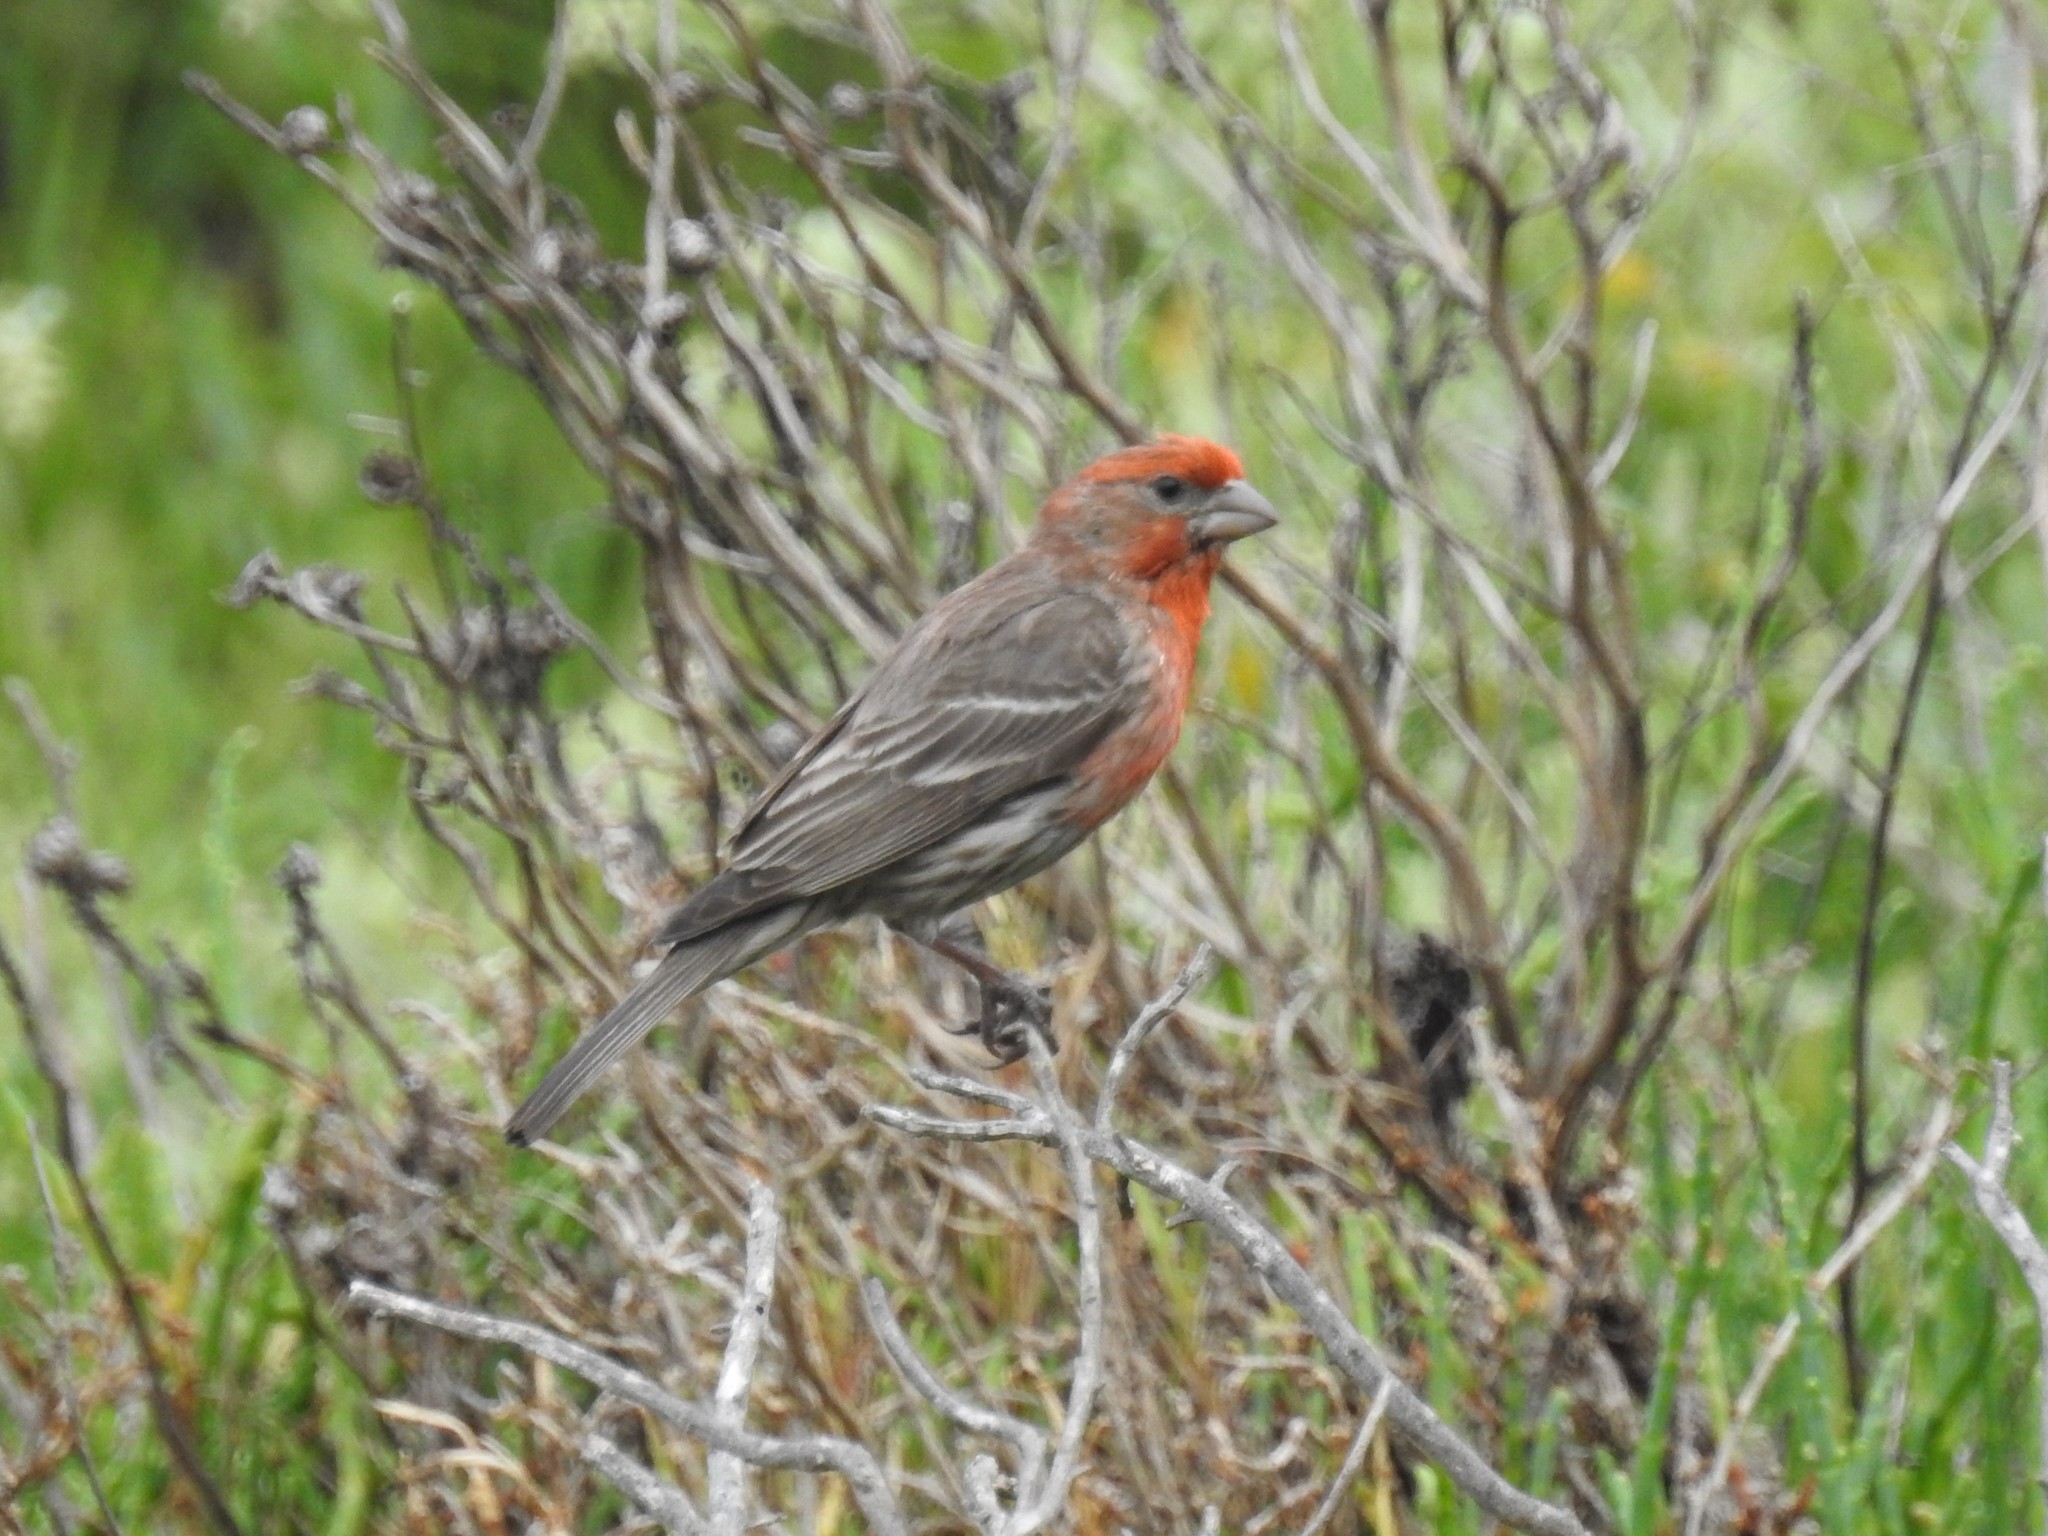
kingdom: Animalia
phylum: Chordata
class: Aves
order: Passeriformes
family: Fringillidae
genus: Haemorhous
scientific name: Haemorhous mexicanus
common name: House finch
